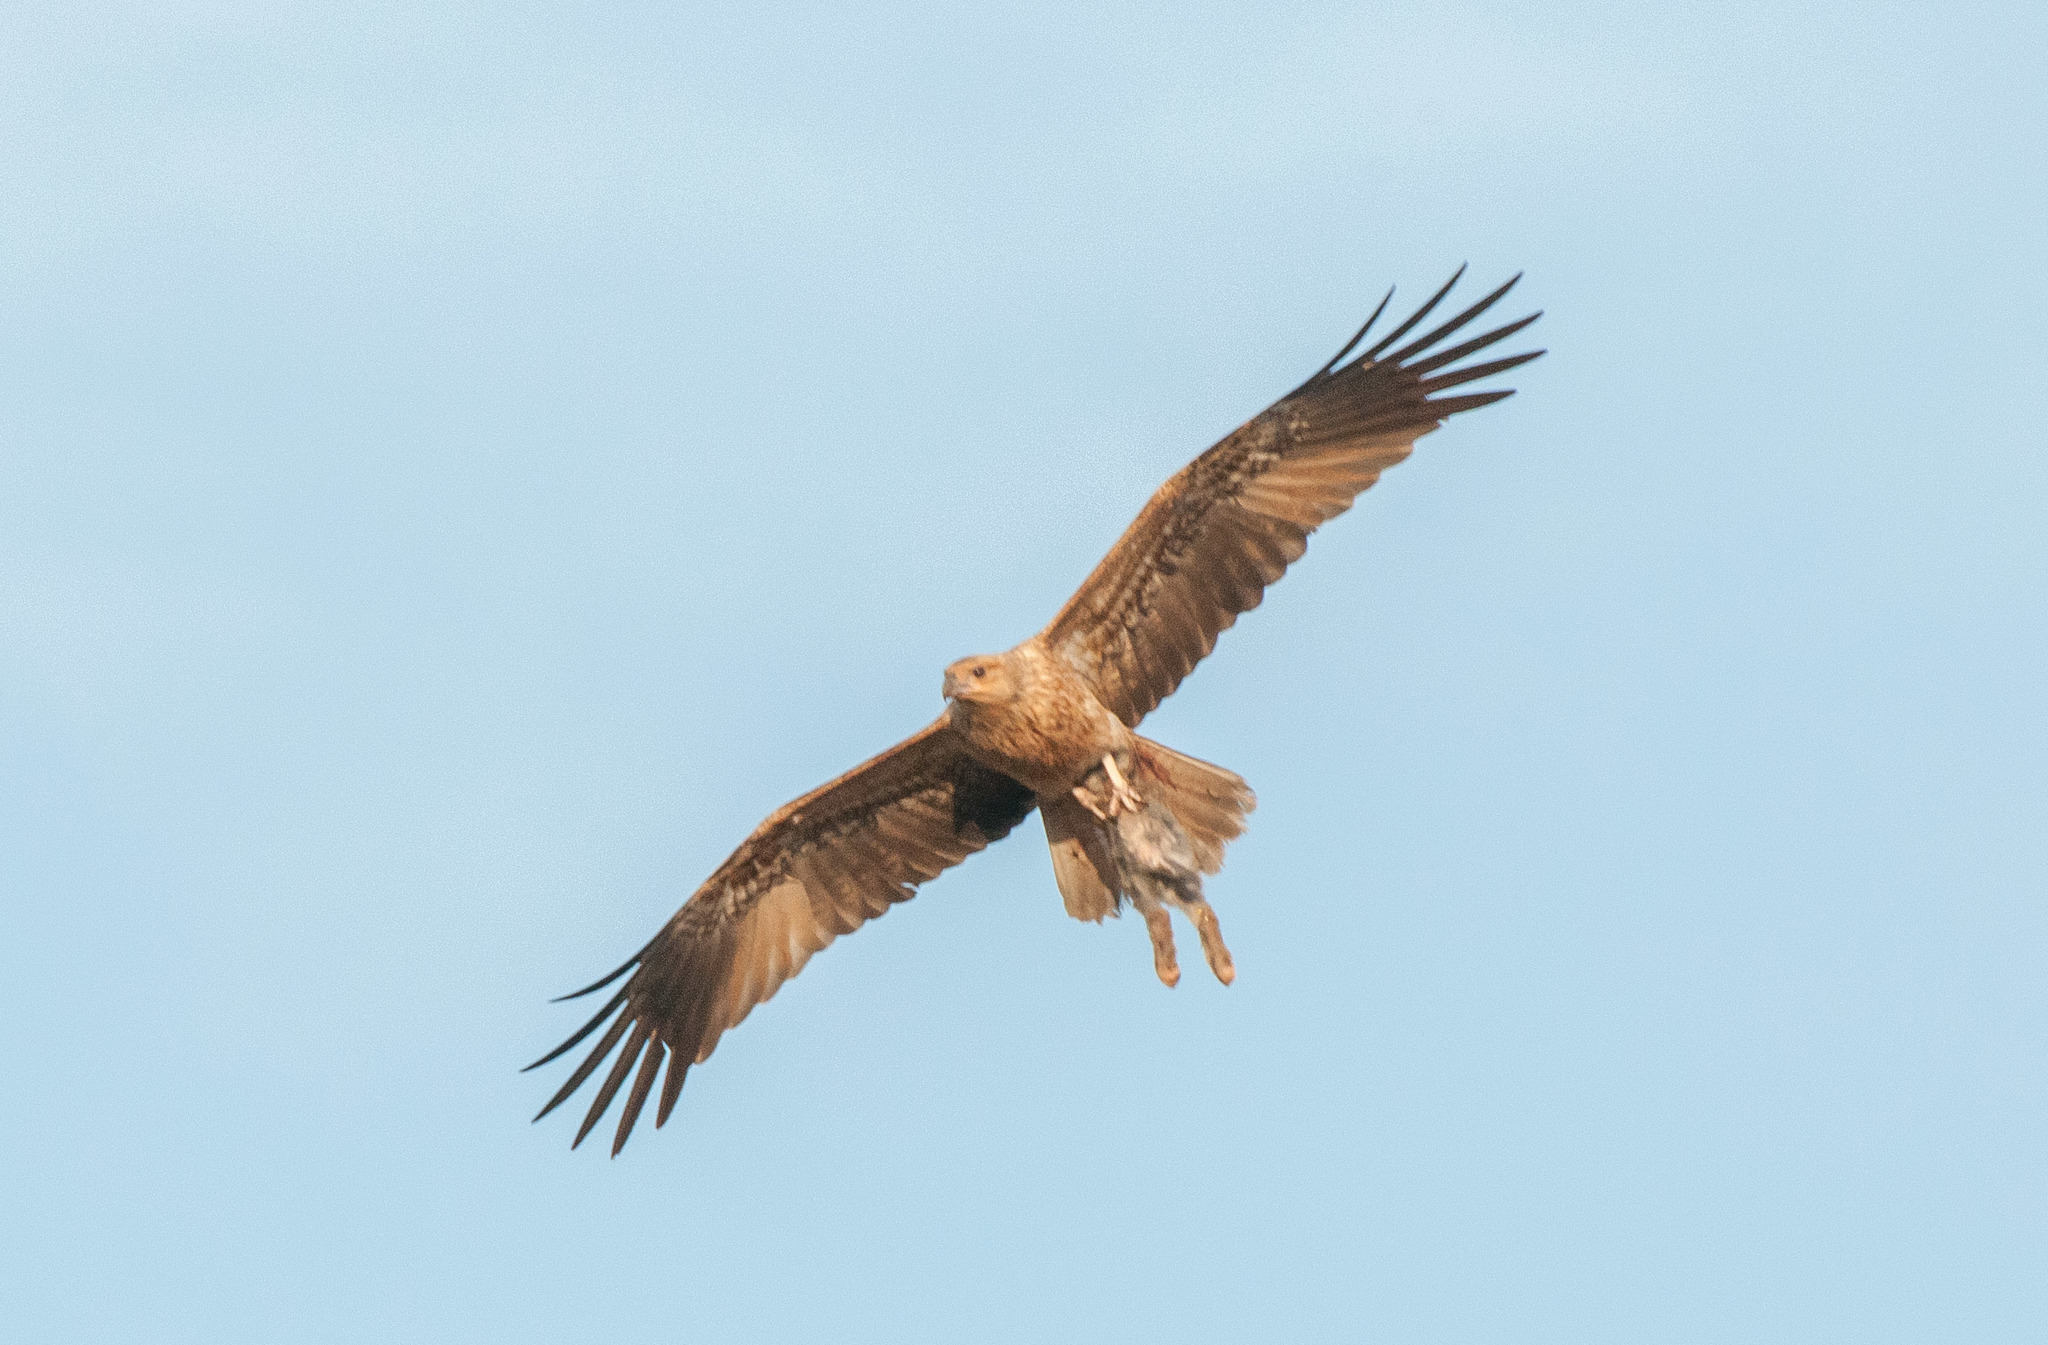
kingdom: Animalia
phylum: Chordata
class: Aves
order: Accipitriformes
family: Accipitridae
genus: Haliastur
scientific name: Haliastur sphenurus
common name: Whistling kite
